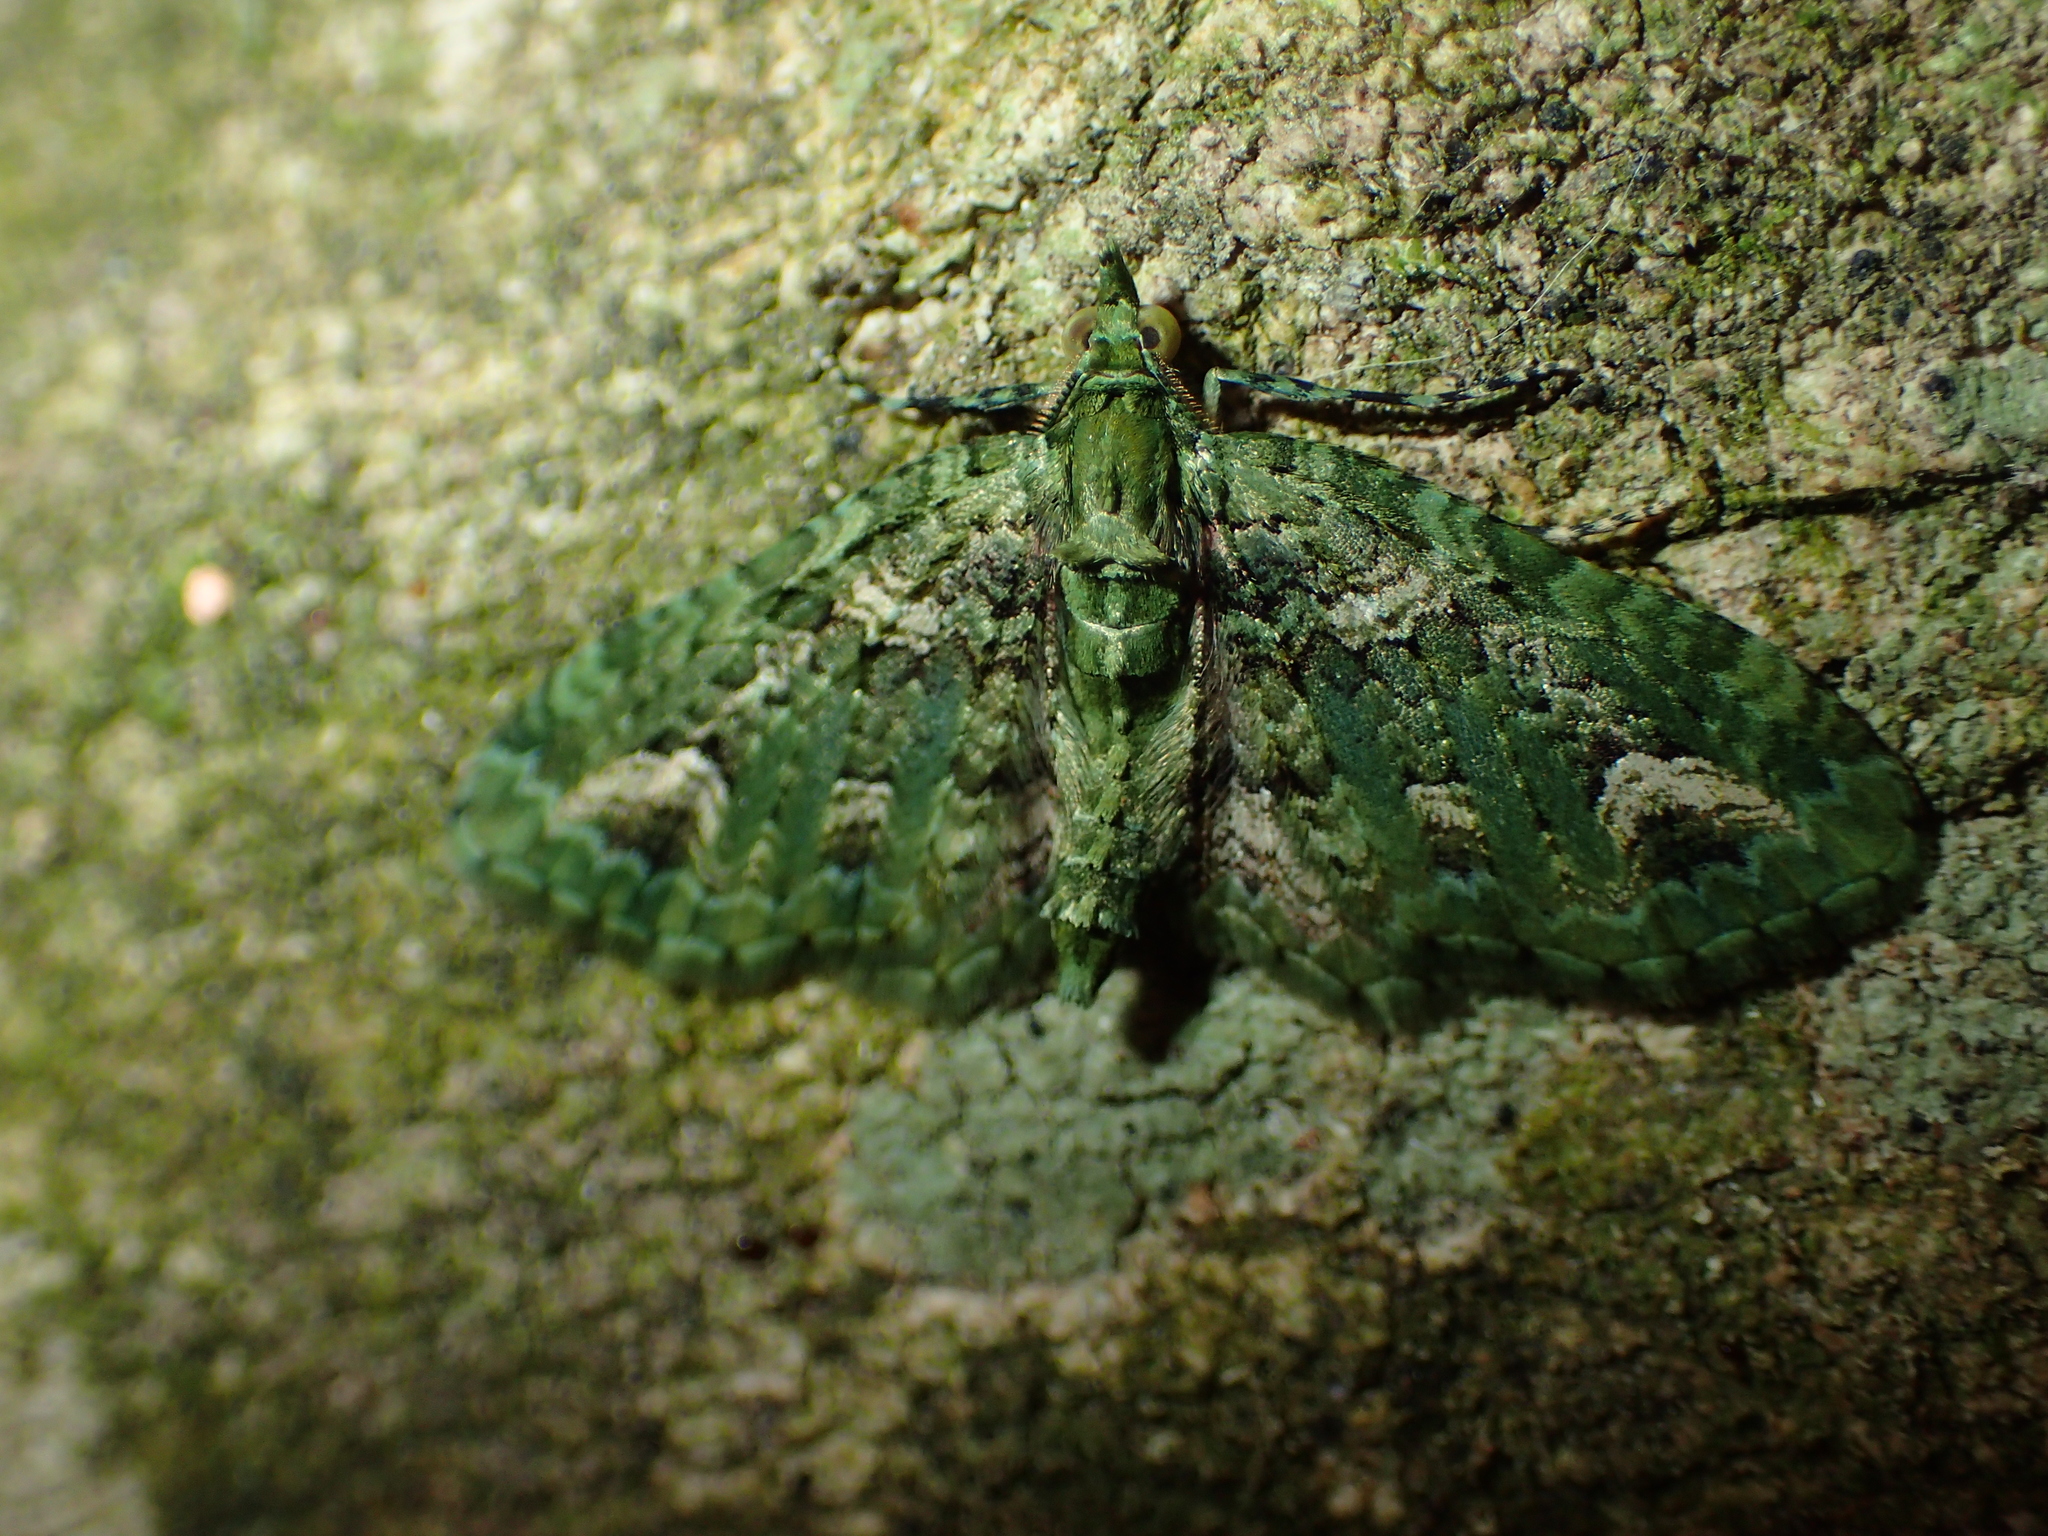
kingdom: Animalia
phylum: Arthropoda
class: Insecta
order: Lepidoptera
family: Geometridae
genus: Pasiphila
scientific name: Pasiphila muscosata
